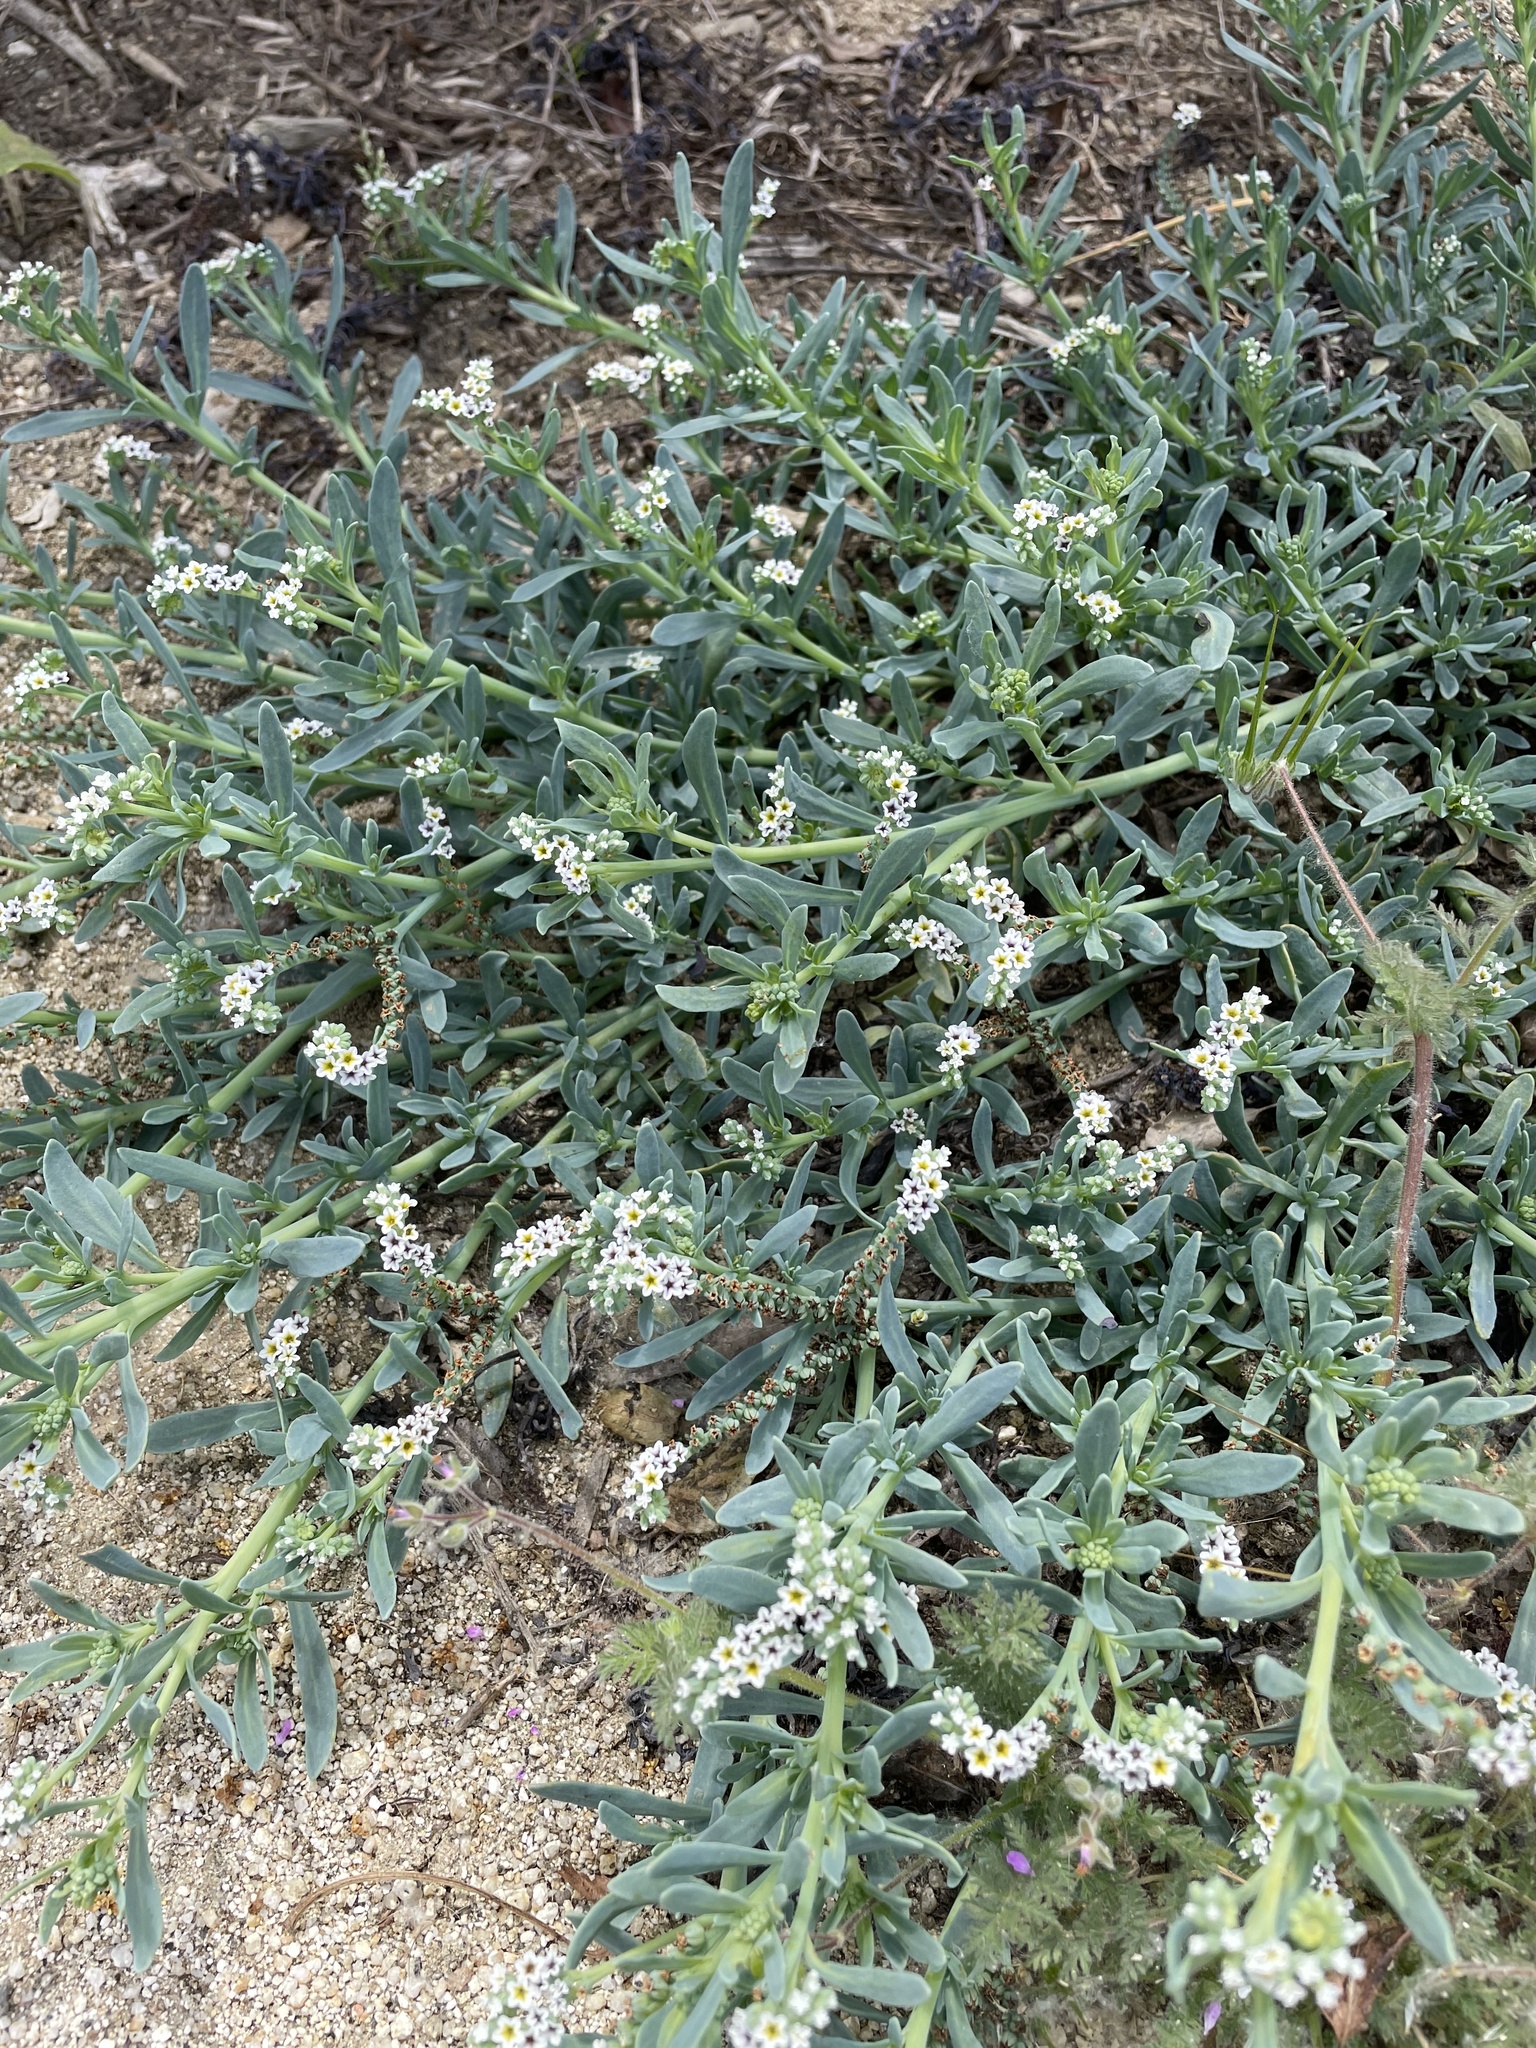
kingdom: Plantae
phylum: Tracheophyta
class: Magnoliopsida
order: Boraginales
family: Heliotropiaceae
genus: Heliotropium
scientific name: Heliotropium curassavicum
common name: Seaside heliotrope
